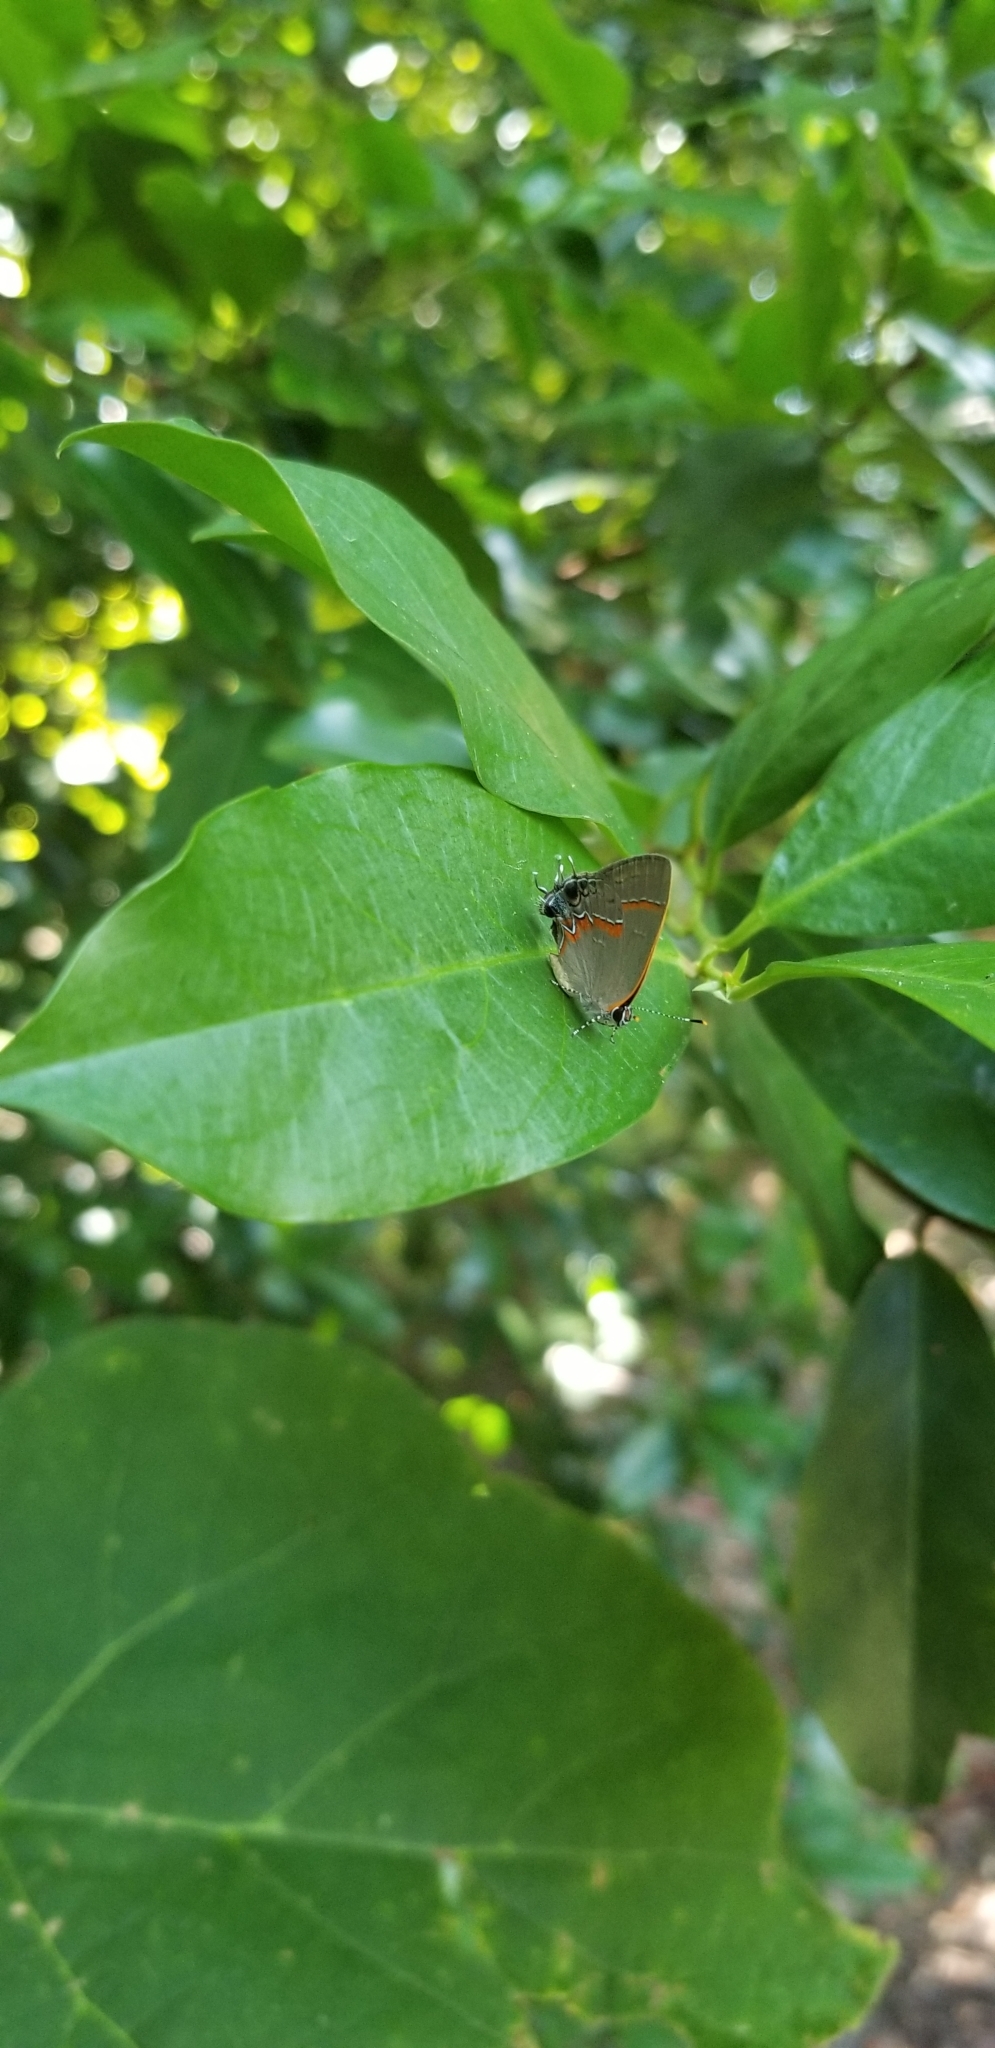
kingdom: Animalia
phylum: Arthropoda
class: Insecta
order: Lepidoptera
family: Lycaenidae
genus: Calycopis
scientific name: Calycopis cecrops
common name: Red-banded hairstreak
